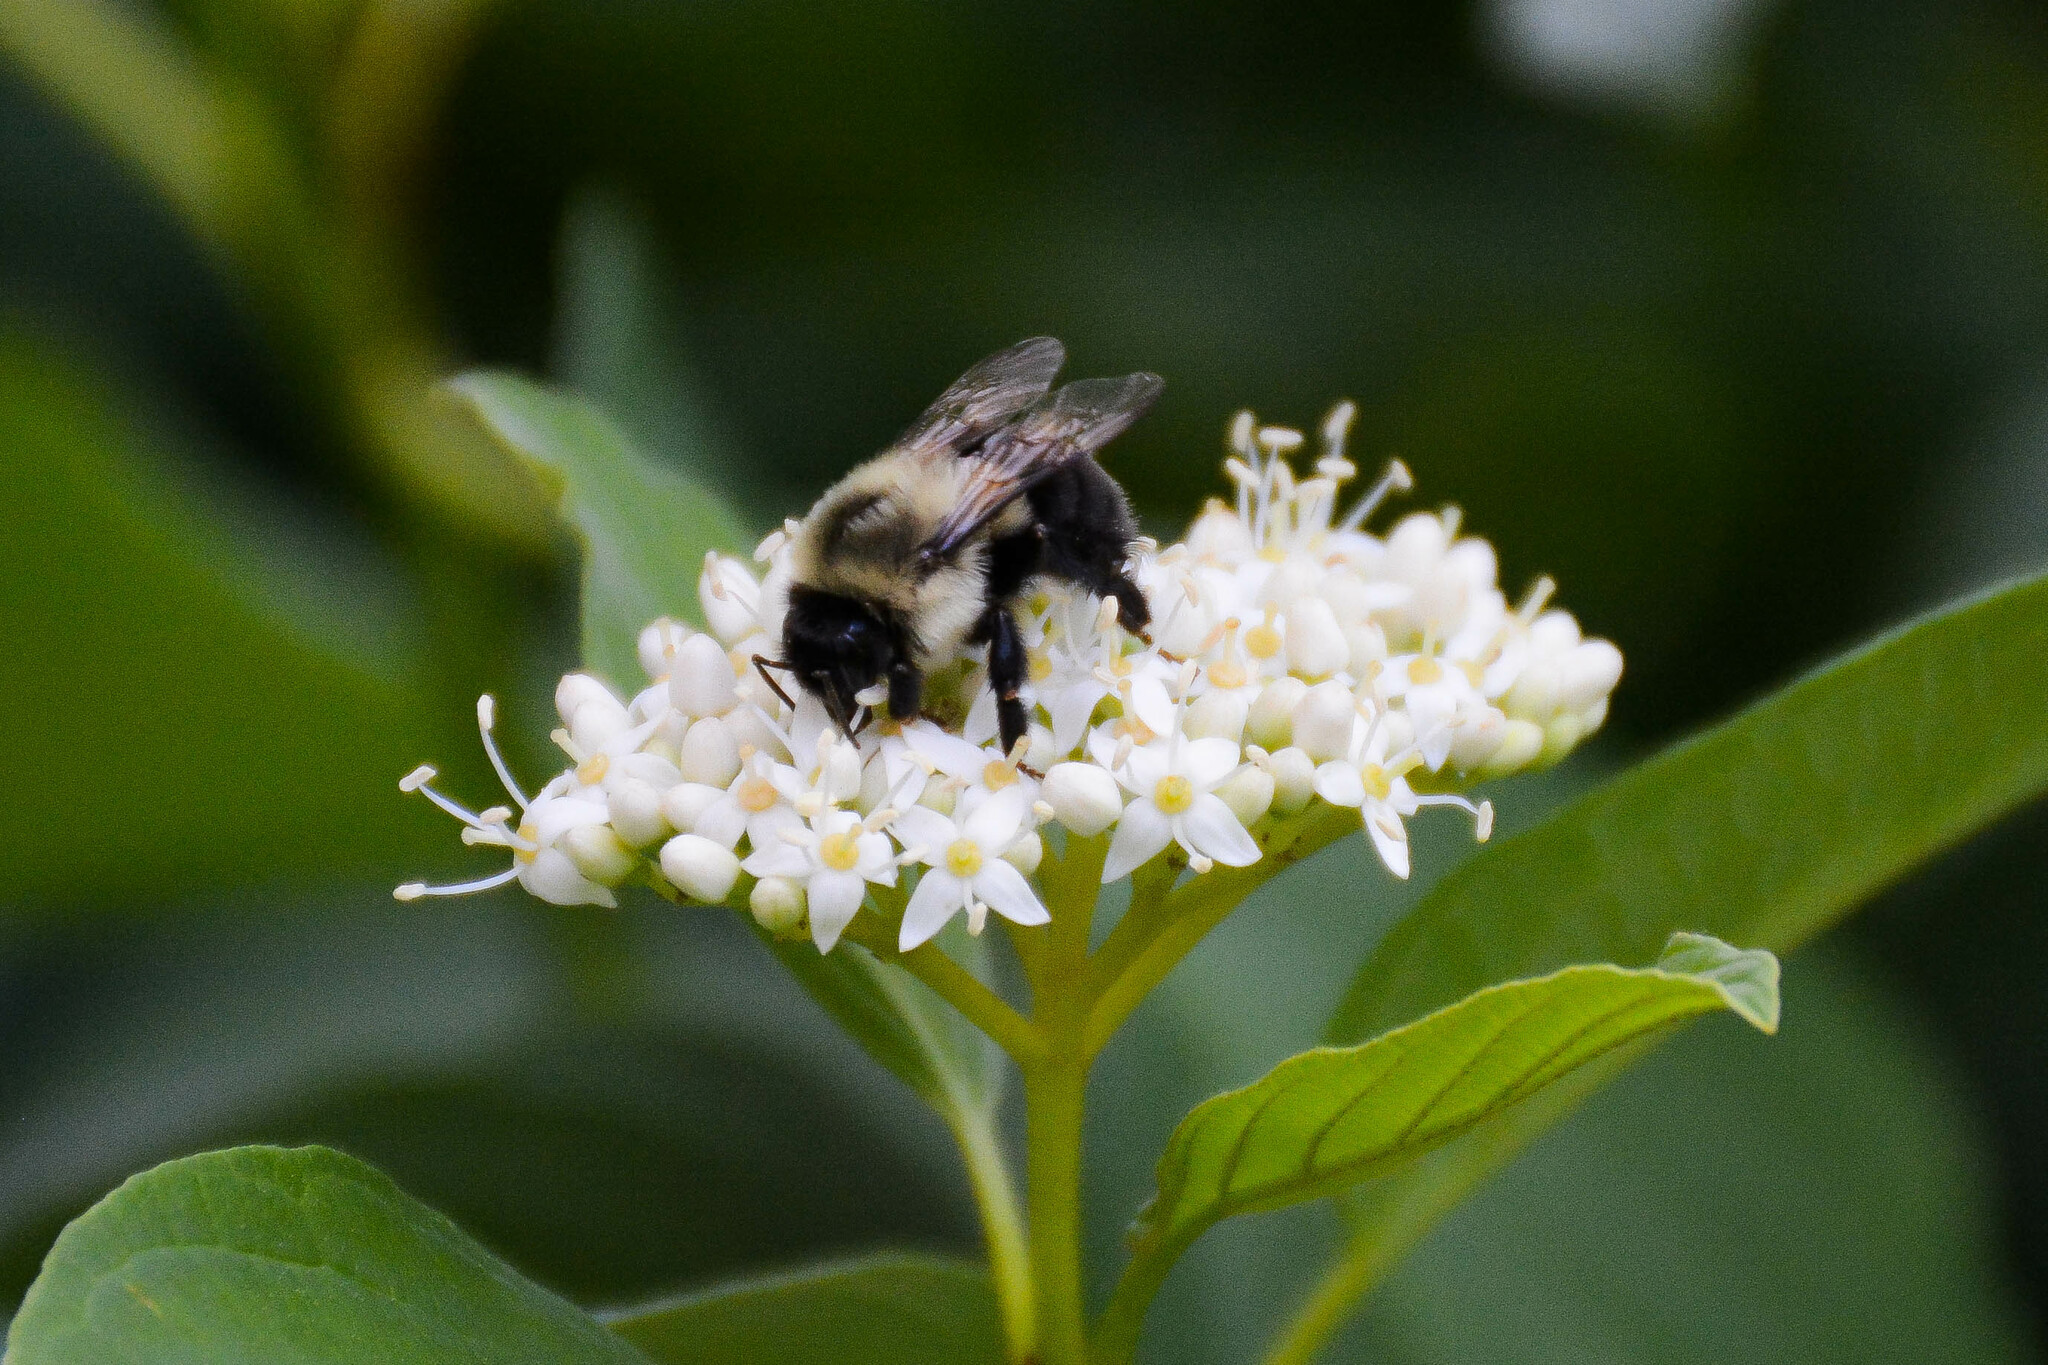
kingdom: Animalia
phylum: Arthropoda
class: Insecta
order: Hymenoptera
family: Apidae
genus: Bombus
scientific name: Bombus impatiens
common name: Common eastern bumble bee
